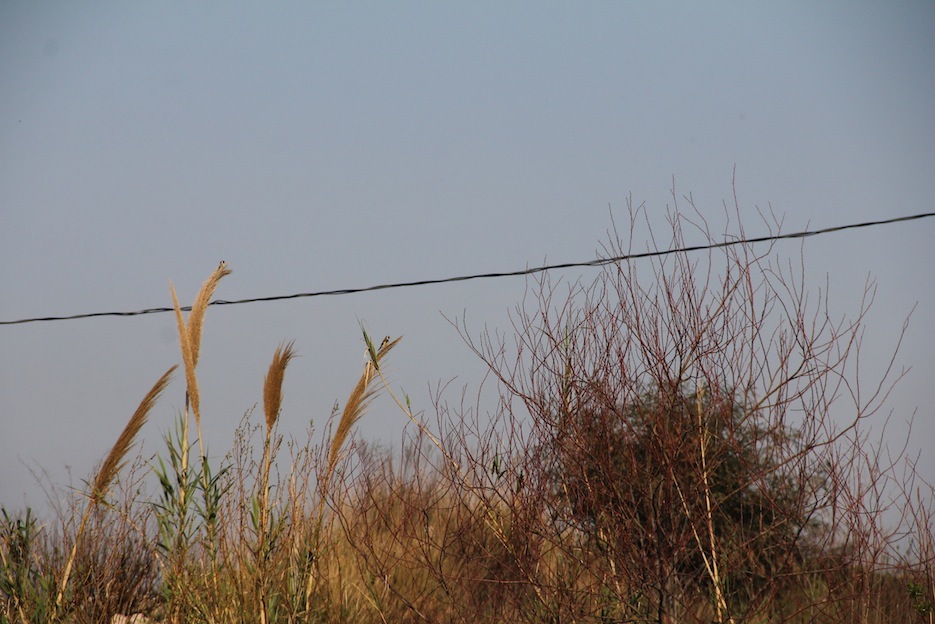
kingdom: Animalia
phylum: Chordata
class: Aves
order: Passeriformes
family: Fringillidae
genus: Carduelis
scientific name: Carduelis carduelis
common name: European goldfinch
